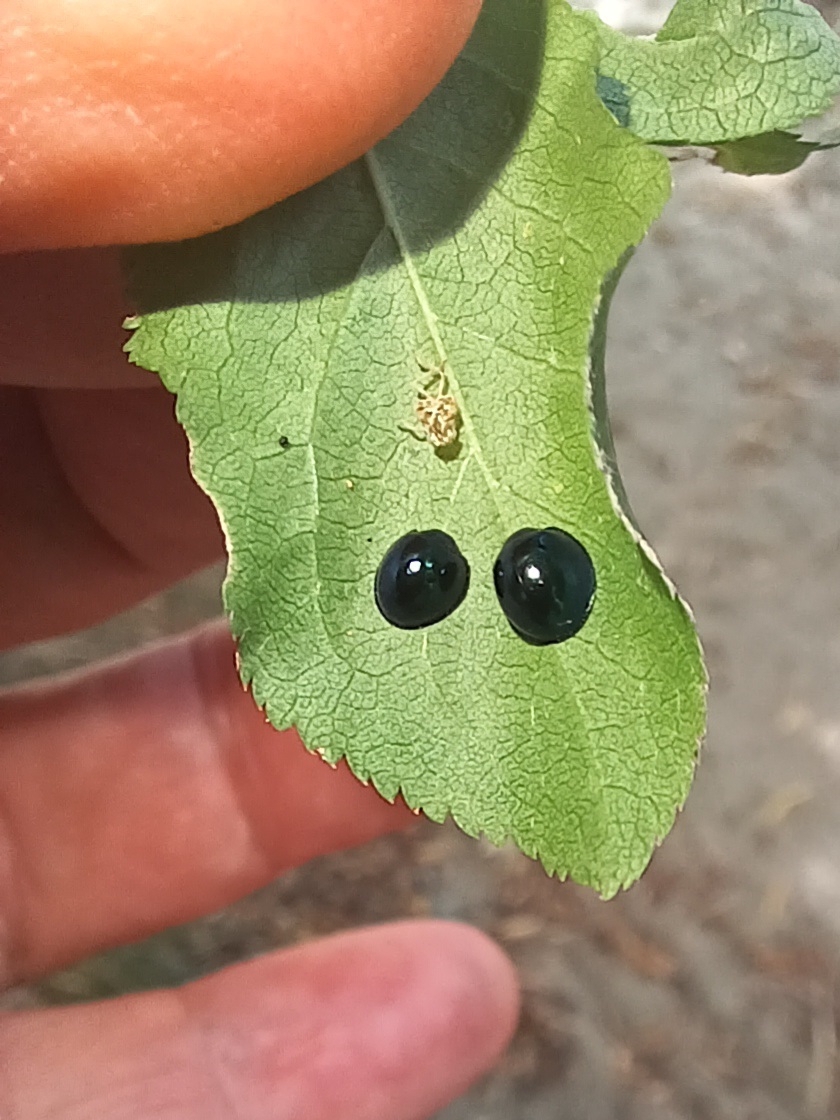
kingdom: Animalia
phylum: Arthropoda
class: Insecta
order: Coleoptera
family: Coccinellidae
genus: Halmus
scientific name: Halmus chalybeus
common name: Steel blue ladybird beetle
